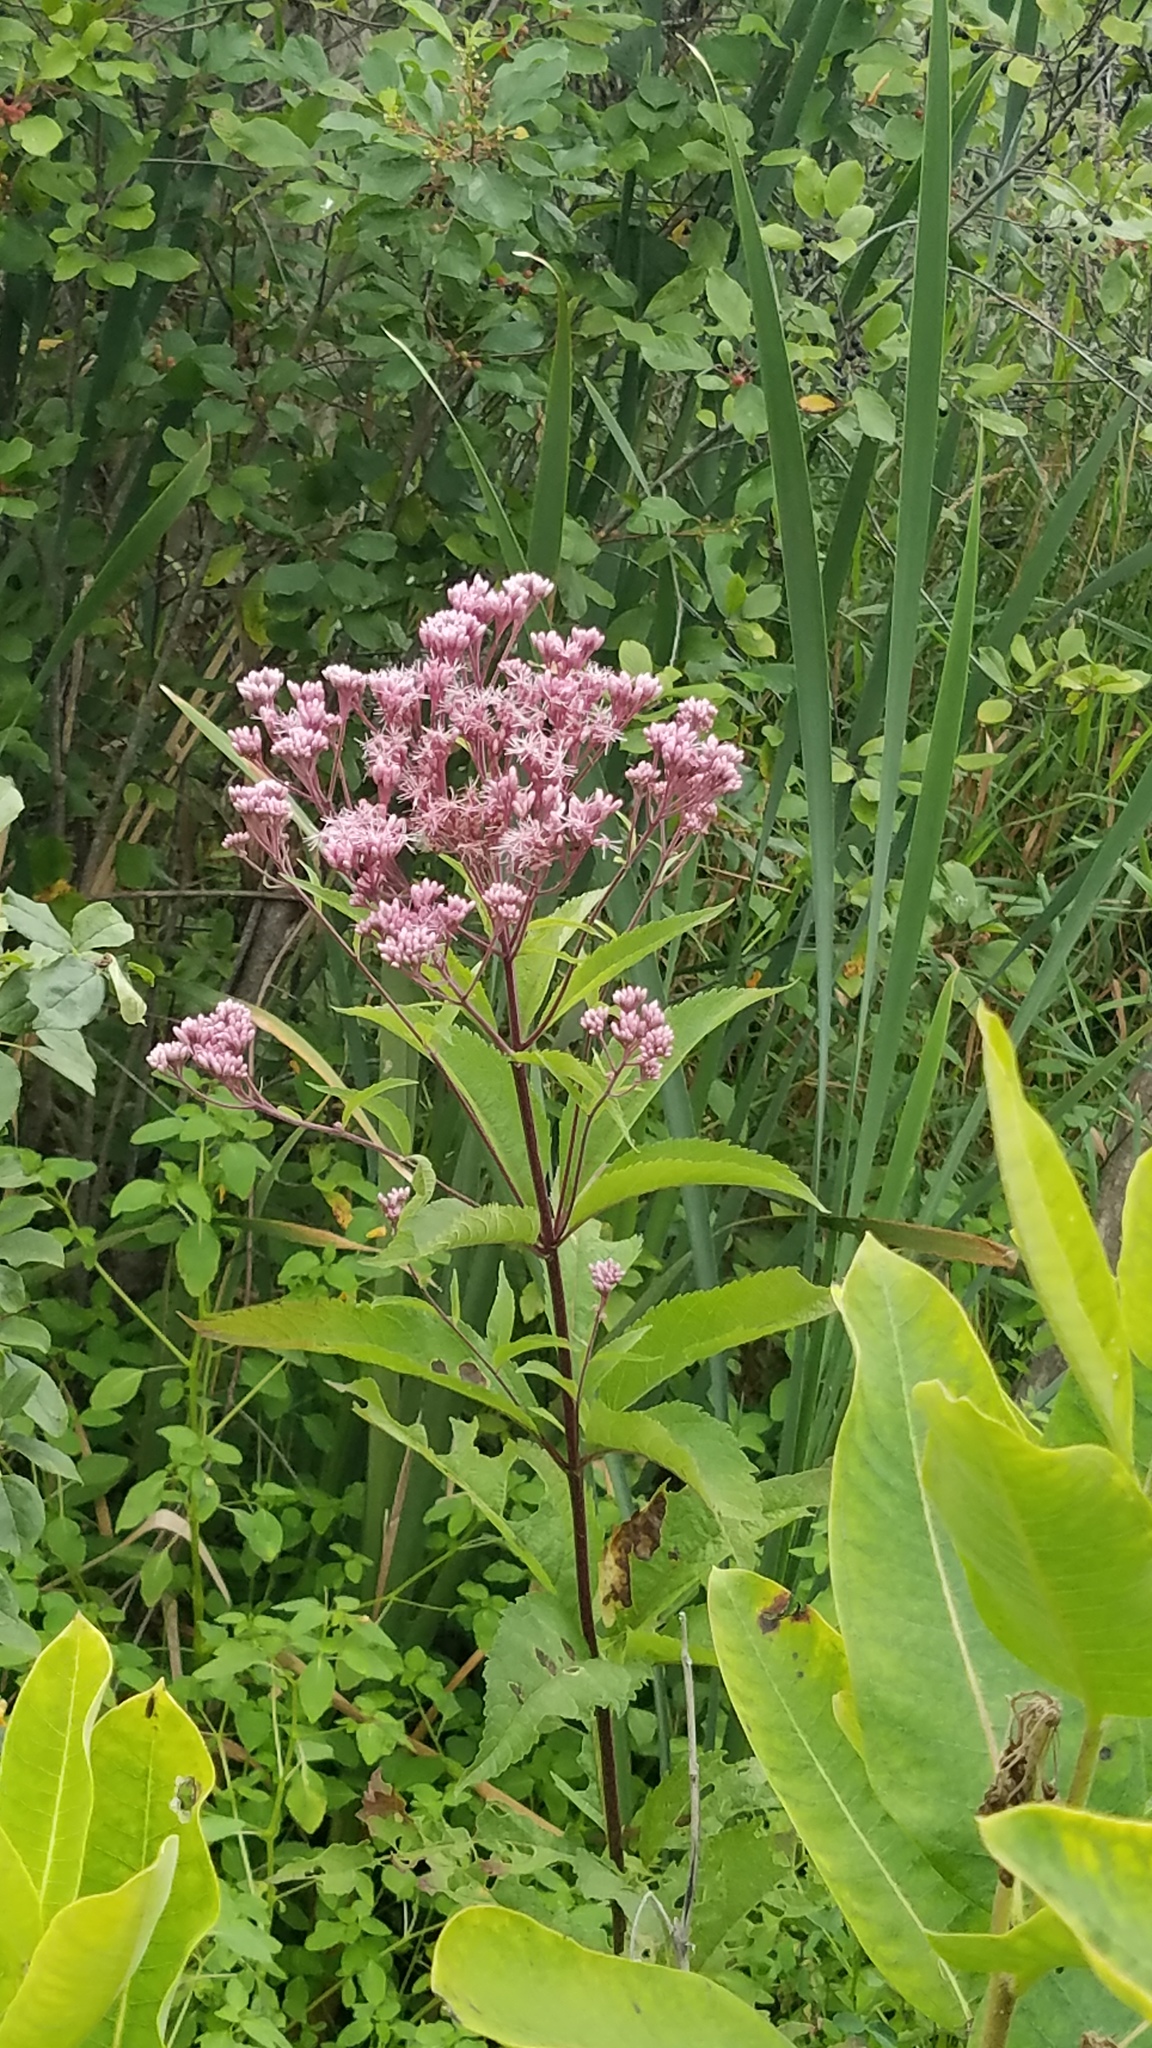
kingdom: Plantae
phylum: Tracheophyta
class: Magnoliopsida
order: Asterales
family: Asteraceae
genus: Eutrochium
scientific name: Eutrochium maculatum
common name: Spotted joe pye weed
